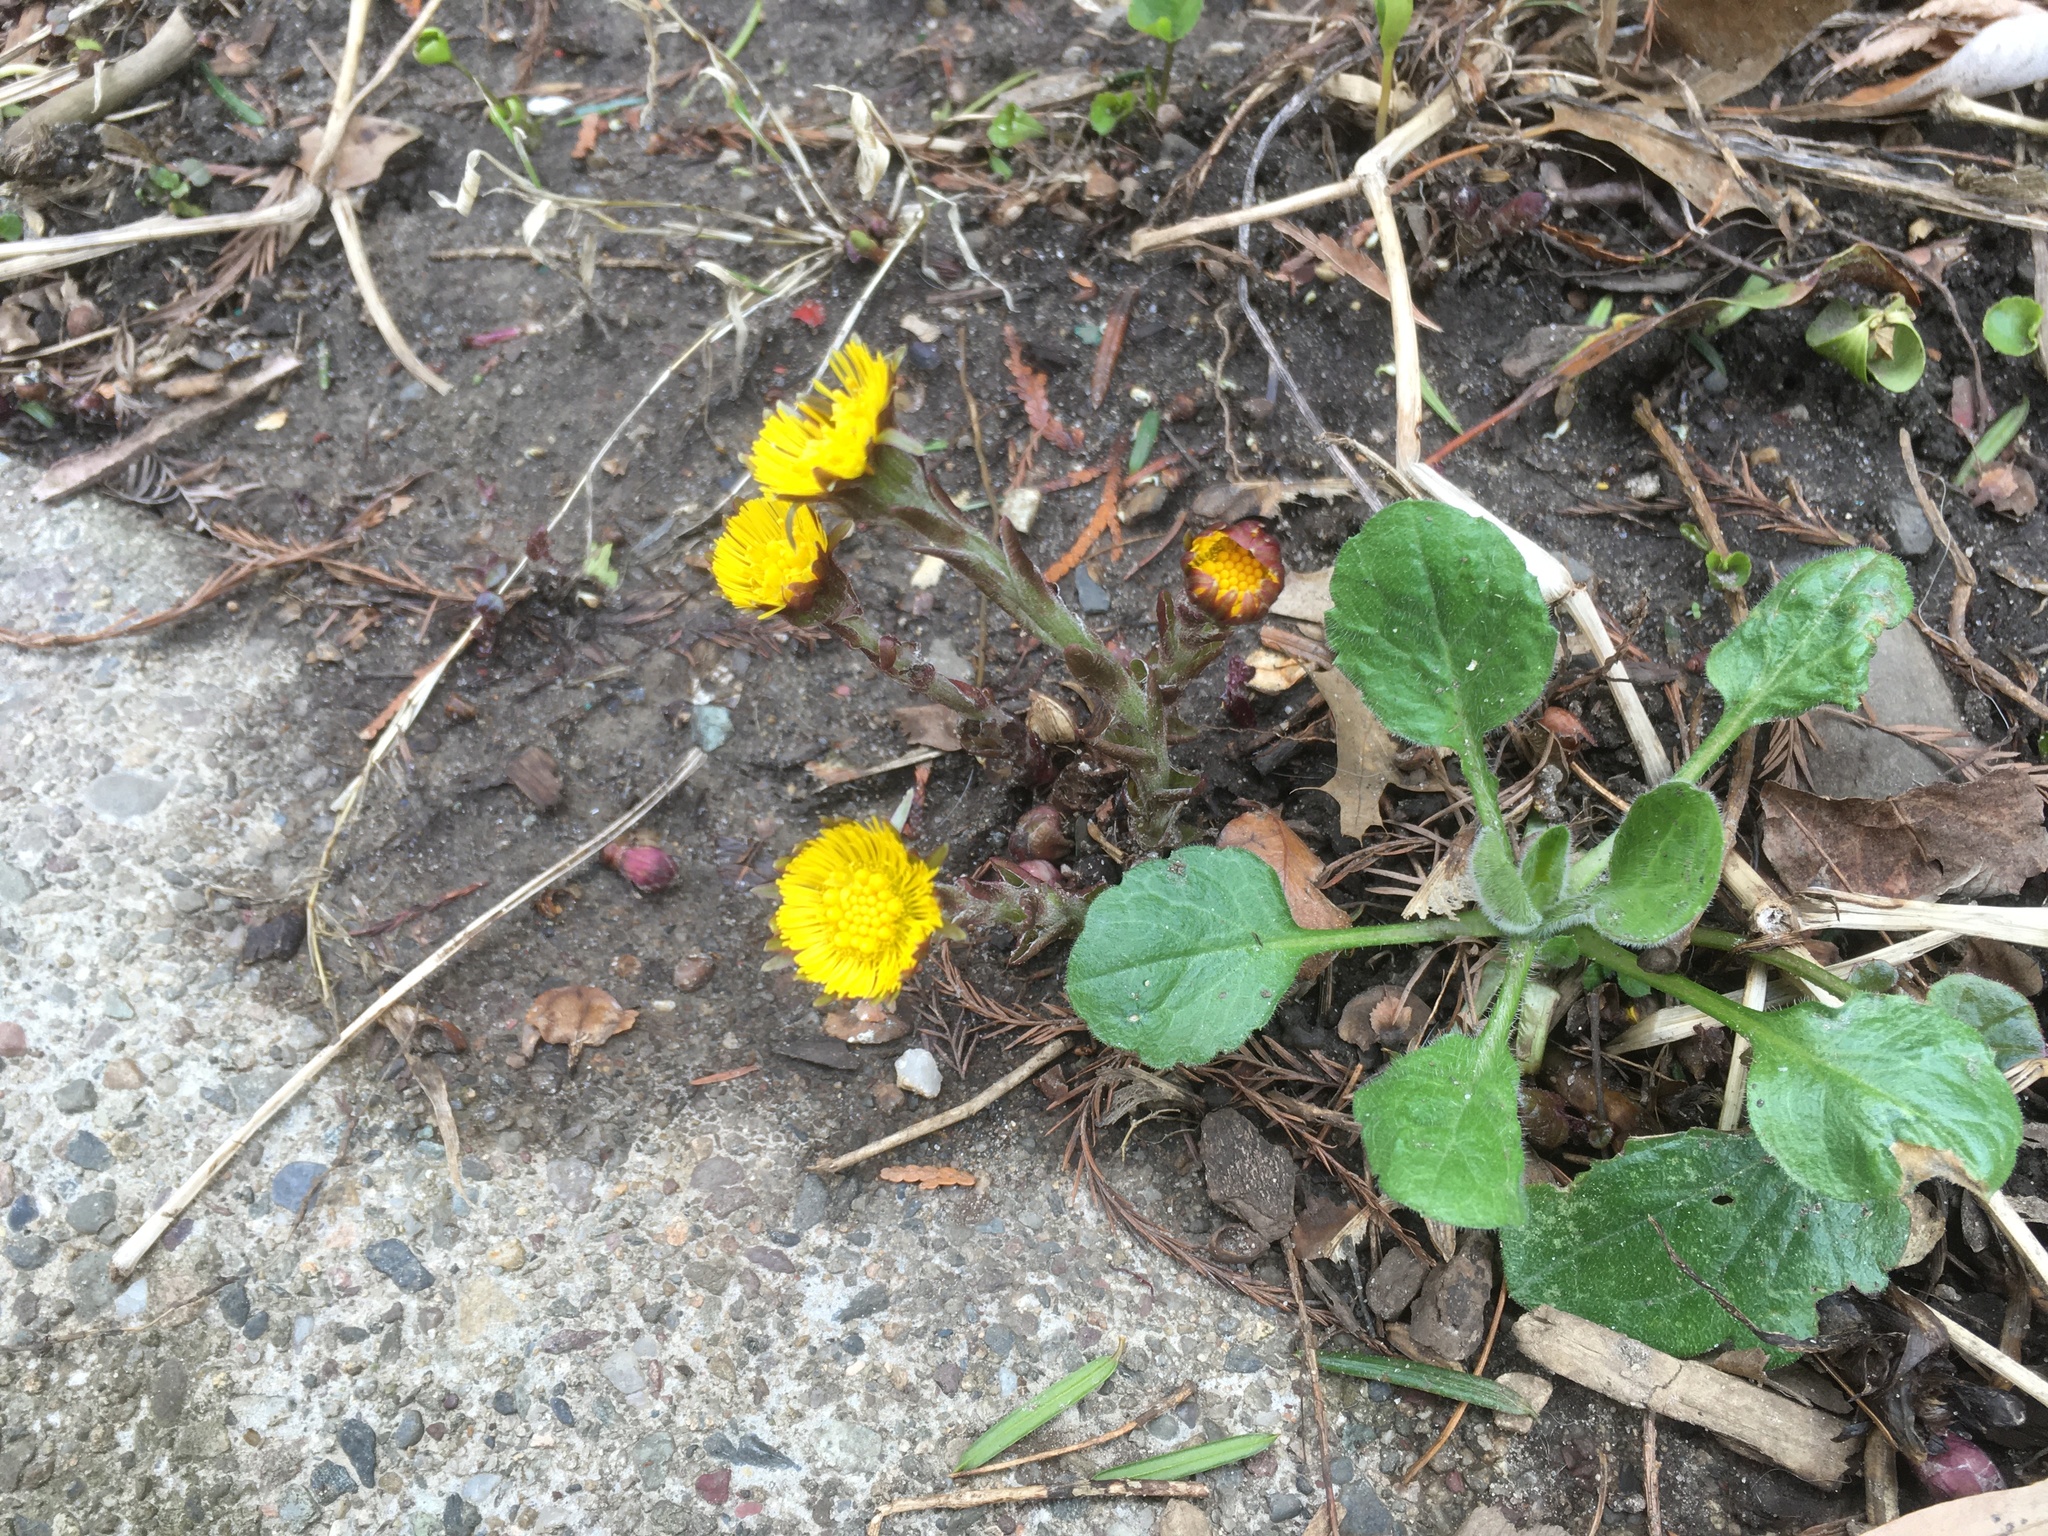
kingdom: Plantae
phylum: Tracheophyta
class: Magnoliopsida
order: Asterales
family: Asteraceae
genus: Tussilago
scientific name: Tussilago farfara
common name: Coltsfoot
